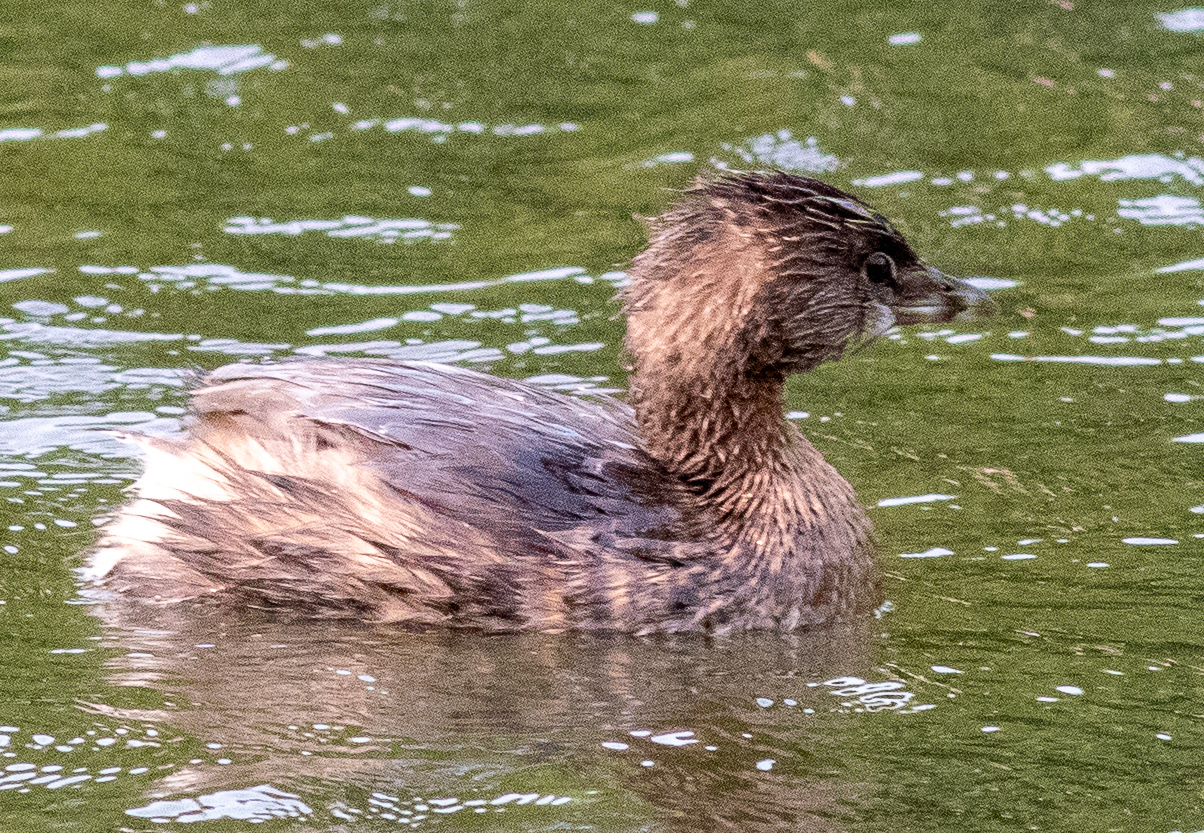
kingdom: Animalia
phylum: Chordata
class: Aves
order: Podicipediformes
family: Podicipedidae
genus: Podilymbus
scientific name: Podilymbus podiceps
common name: Pied-billed grebe
